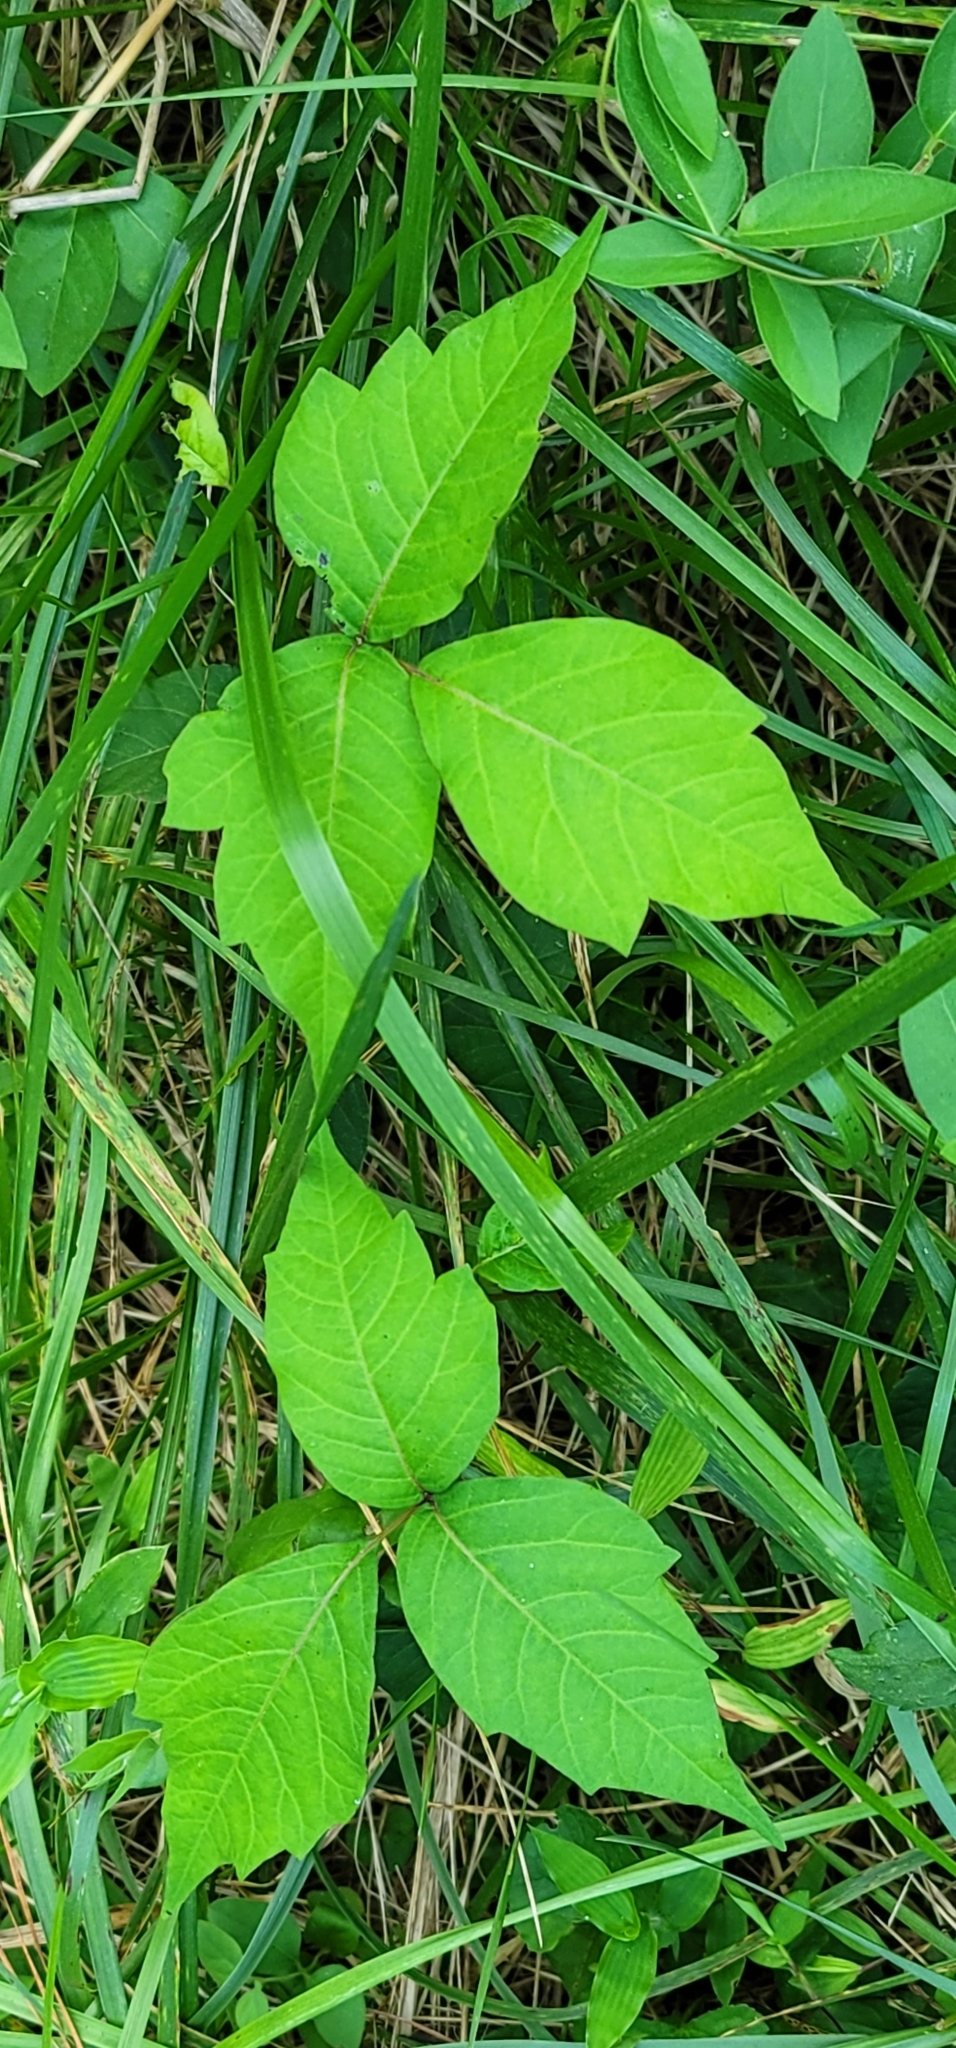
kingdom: Plantae
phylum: Tracheophyta
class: Magnoliopsida
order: Sapindales
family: Anacardiaceae
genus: Toxicodendron
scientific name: Toxicodendron radicans
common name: Poison ivy
